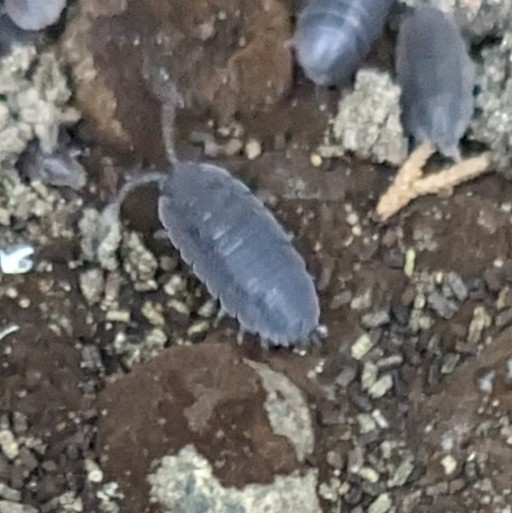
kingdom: Animalia
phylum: Arthropoda
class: Malacostraca
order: Isopoda
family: Porcellionidae
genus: Porcellio
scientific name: Porcellio scaber
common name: Common rough woodlouse
